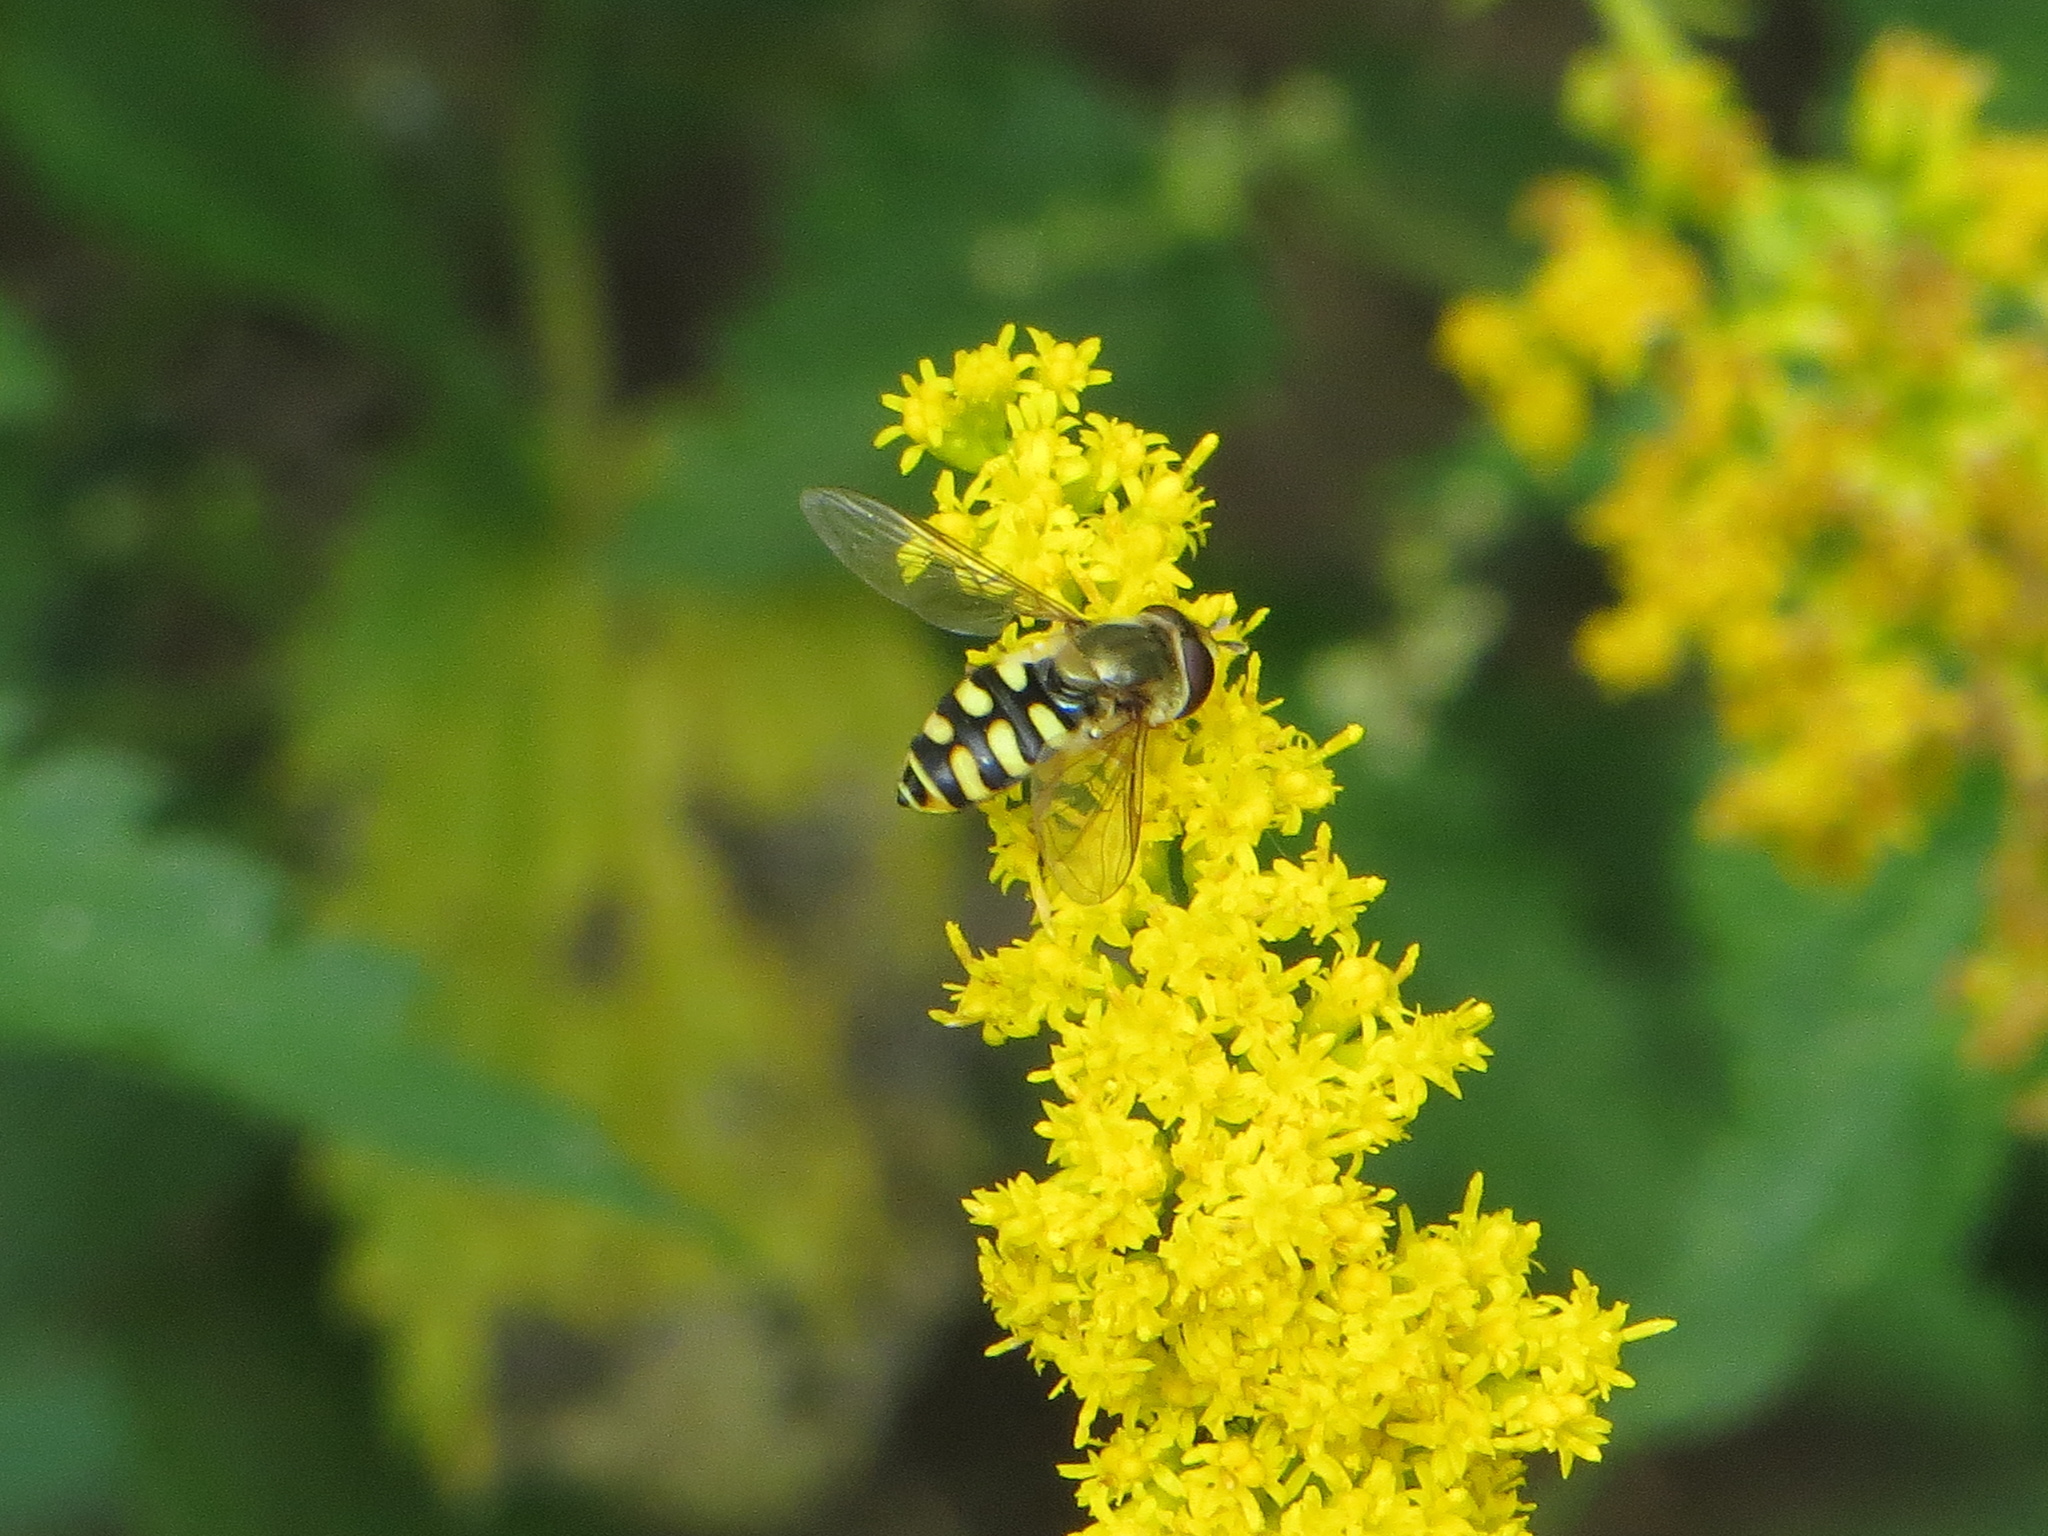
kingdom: Animalia
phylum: Arthropoda
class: Insecta
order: Diptera
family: Syrphidae
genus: Eupeodes
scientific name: Eupeodes corollae
